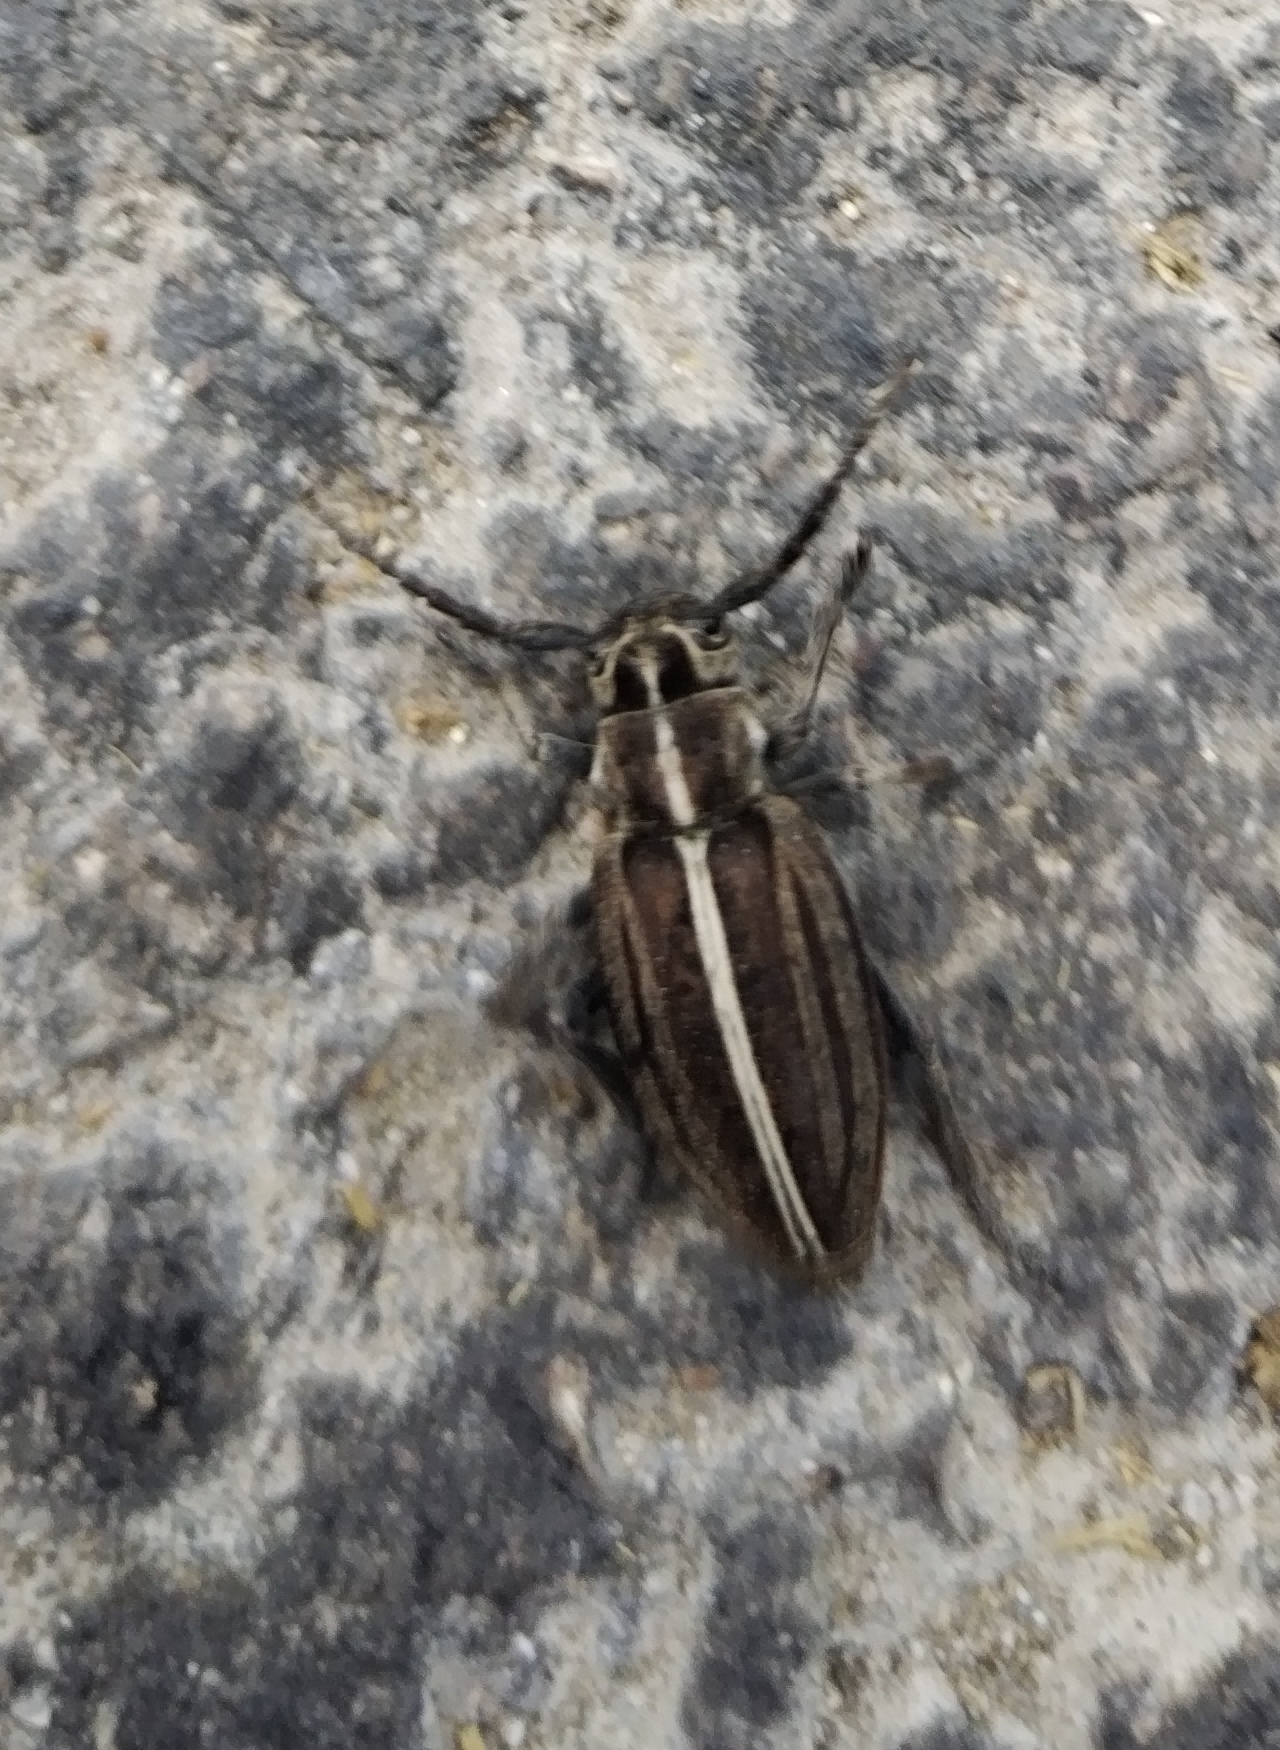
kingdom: Animalia
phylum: Arthropoda
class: Insecta
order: Coleoptera
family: Cerambycidae
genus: Dorcadion
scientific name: Dorcadion arenarium
